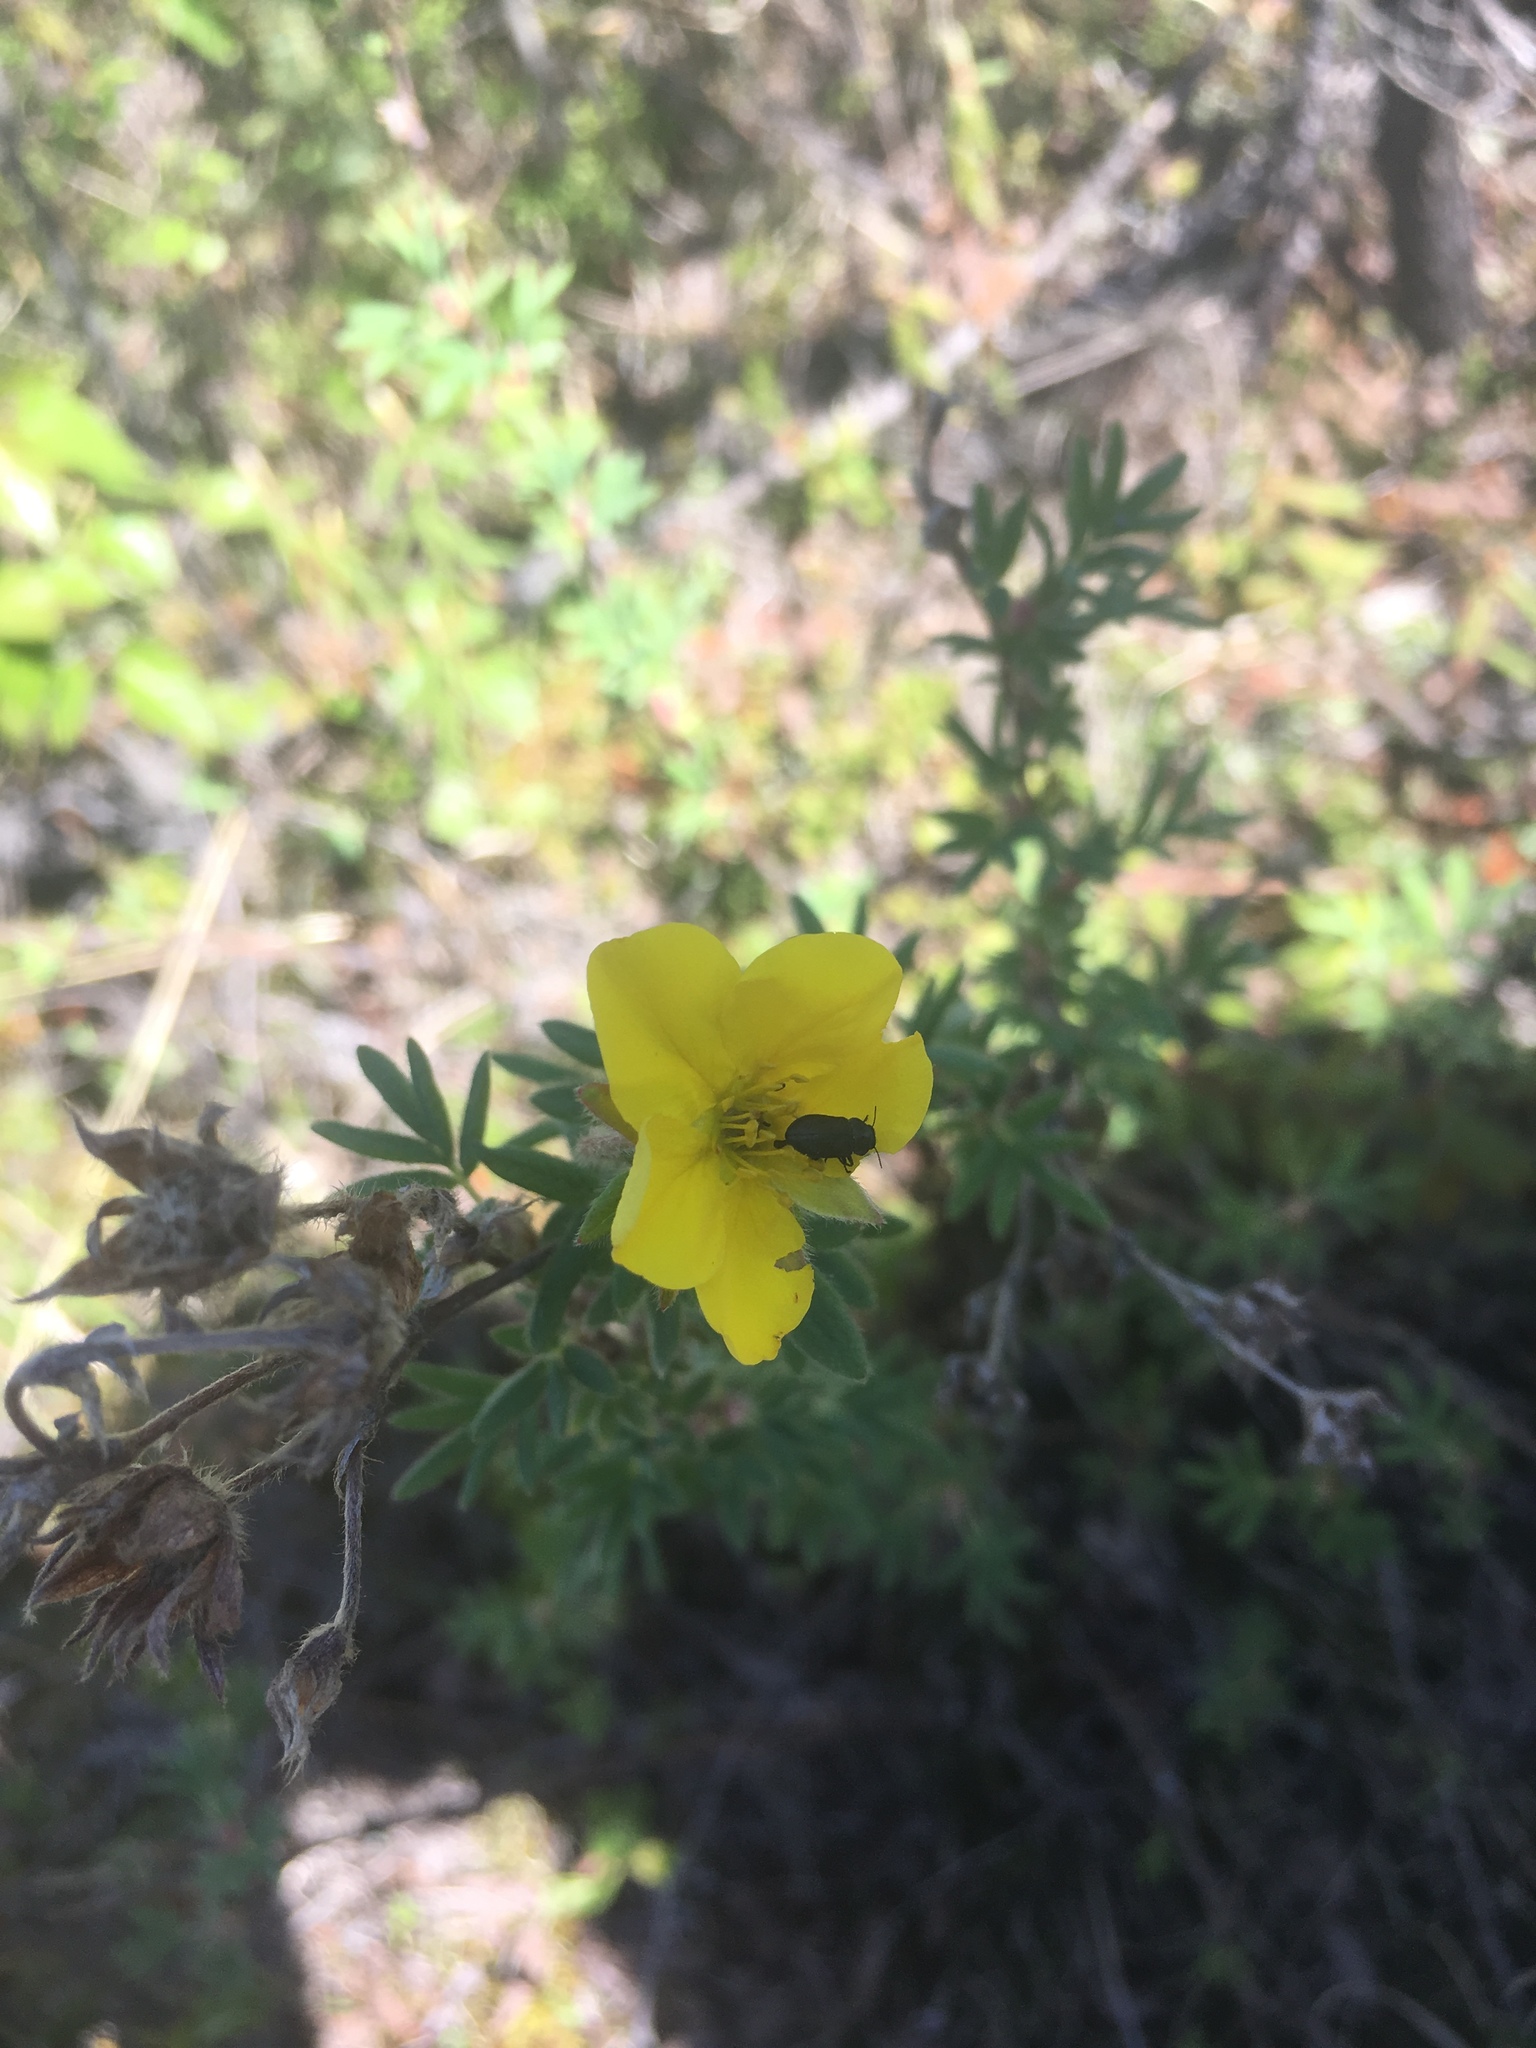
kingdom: Plantae
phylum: Tracheophyta
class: Magnoliopsida
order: Rosales
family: Rosaceae
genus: Dasiphora
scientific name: Dasiphora fruticosa
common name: Shrubby cinquefoil
